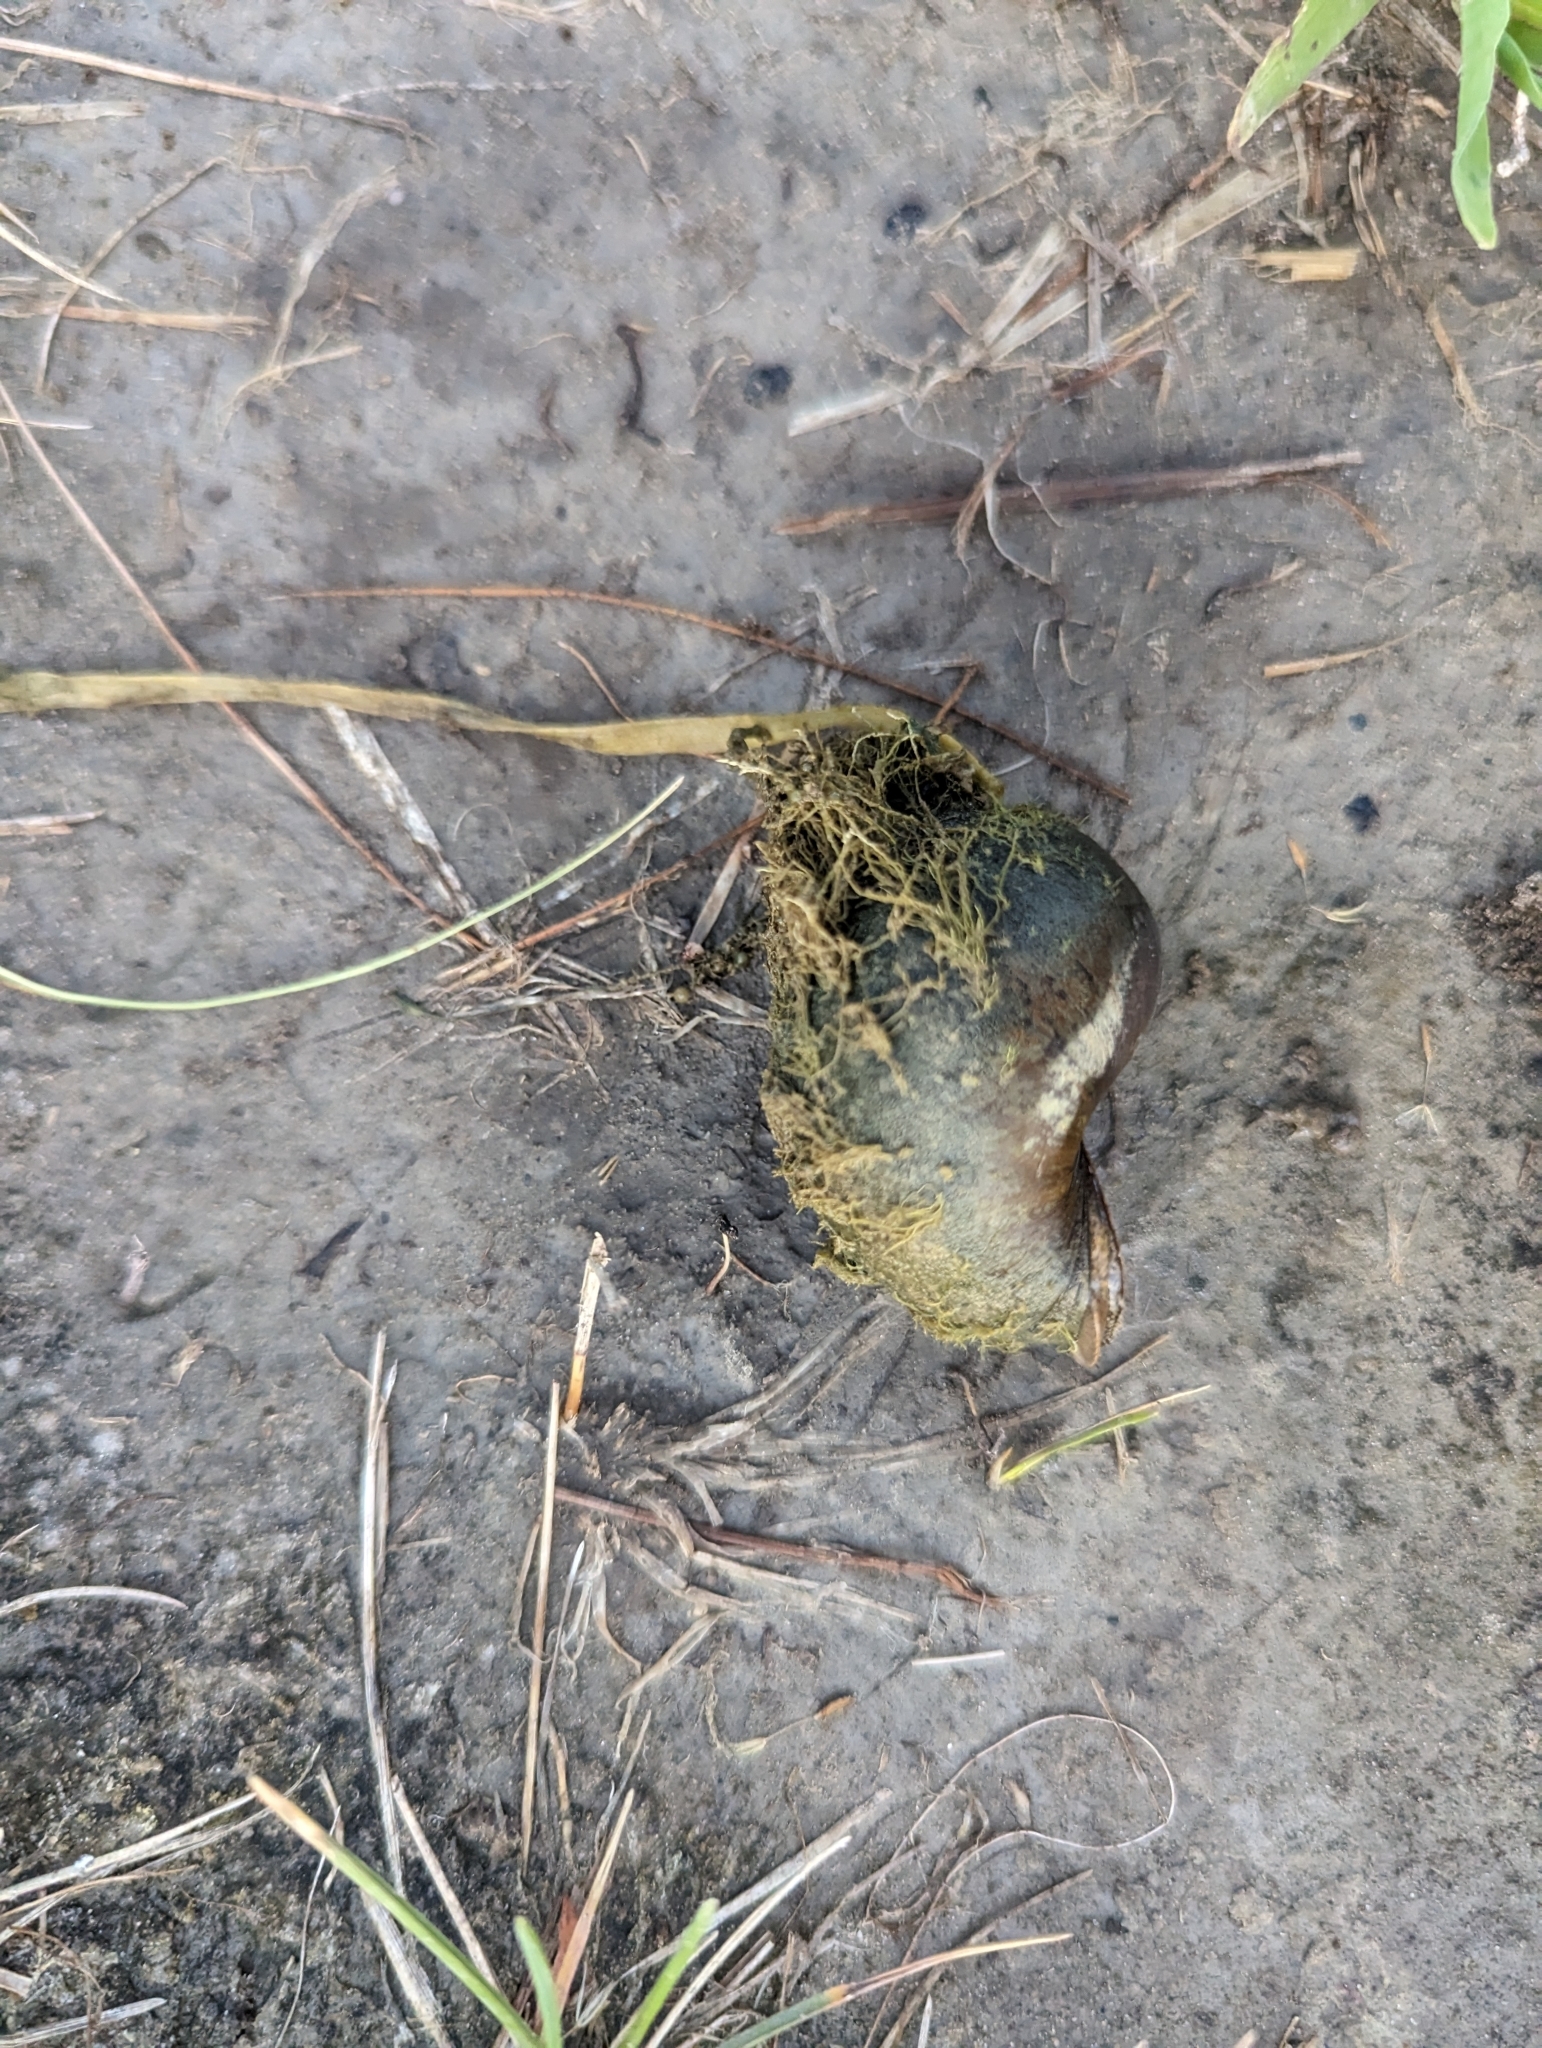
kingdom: Animalia
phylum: Mollusca
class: Gastropoda
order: Architaenioglossa
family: Viviparidae
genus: Cipangopaludina
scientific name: Cipangopaludina chinensis
